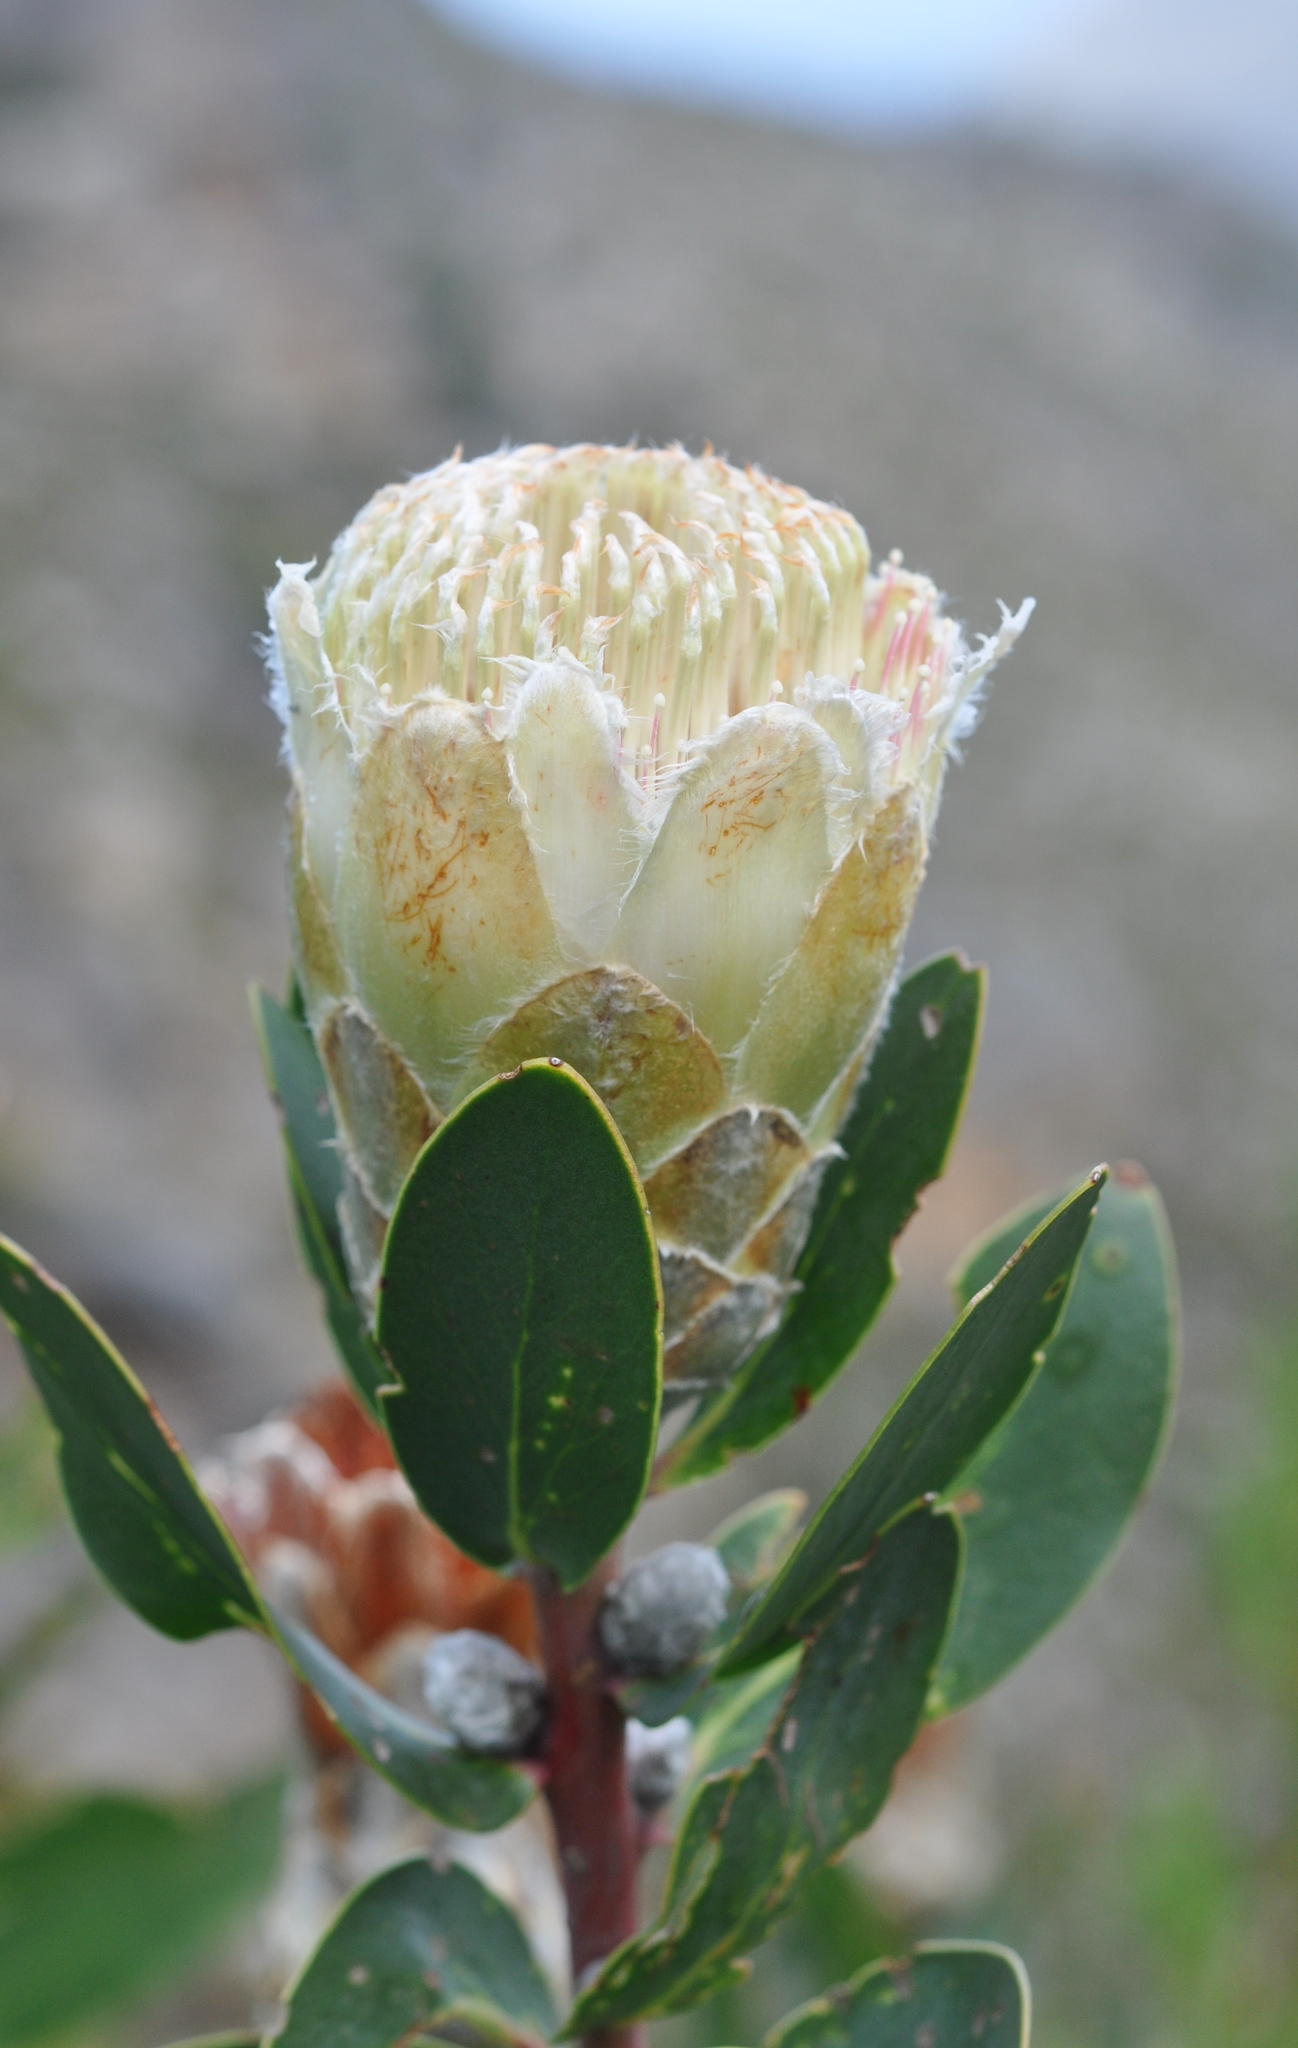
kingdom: Plantae
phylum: Tracheophyta
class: Magnoliopsida
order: Proteales
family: Proteaceae
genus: Protea
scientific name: Protea mundii
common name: Forest sugarbush
